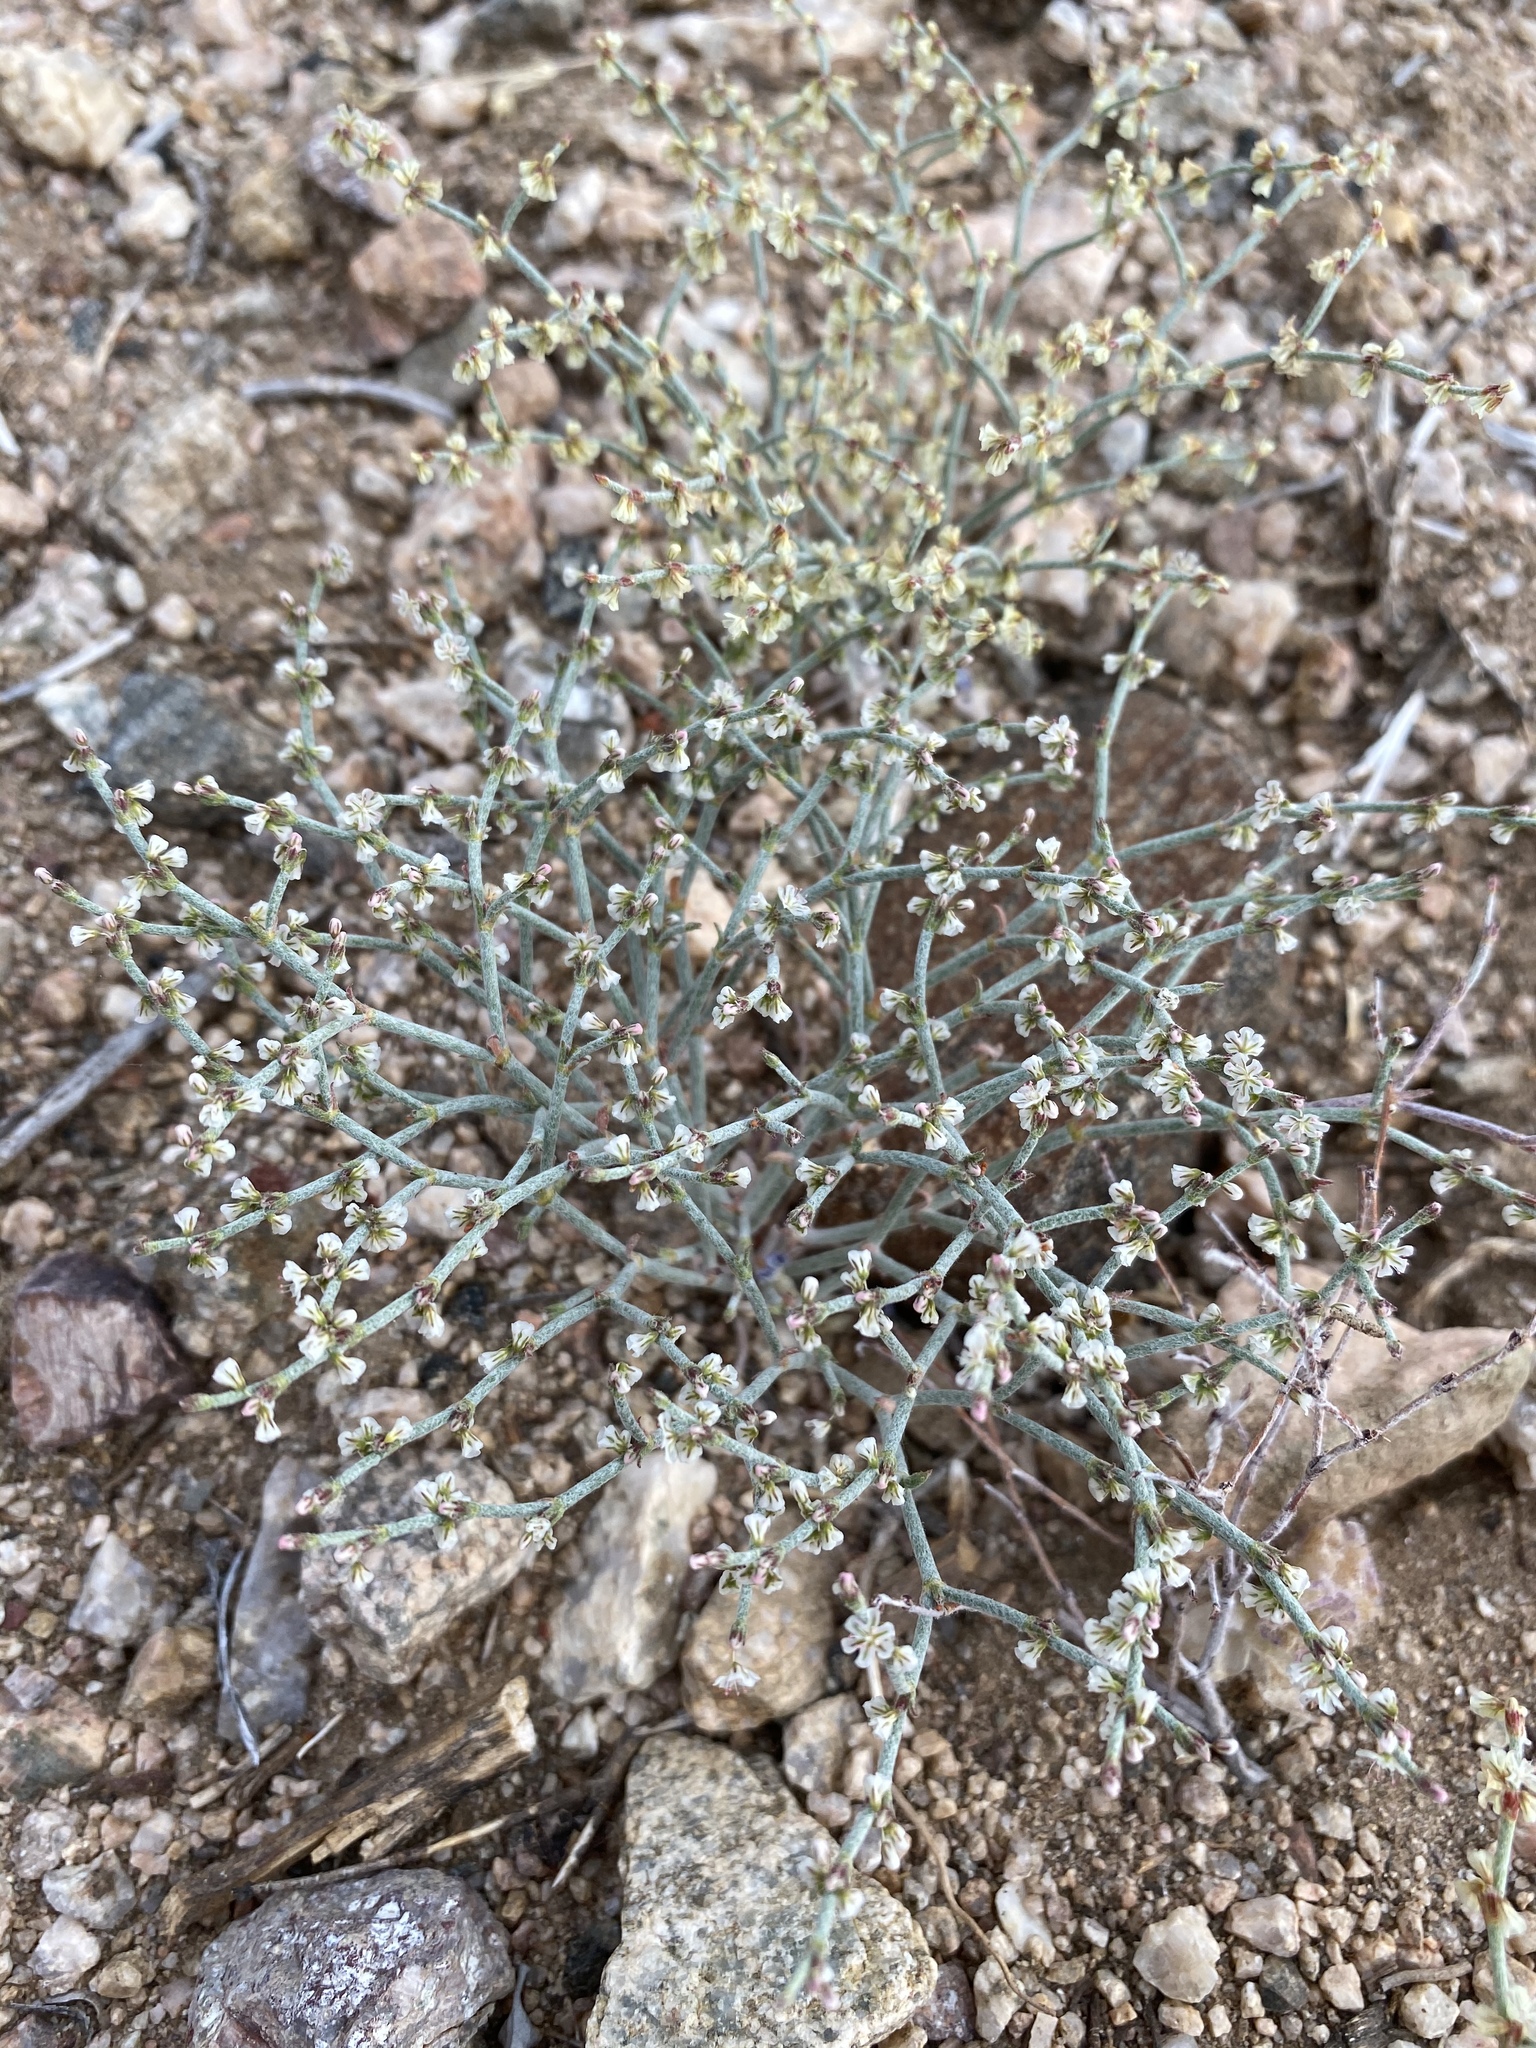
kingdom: Plantae
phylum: Tracheophyta
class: Magnoliopsida
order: Caryophyllales
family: Polygonaceae
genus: Eriogonum
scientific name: Eriogonum palmerianum
